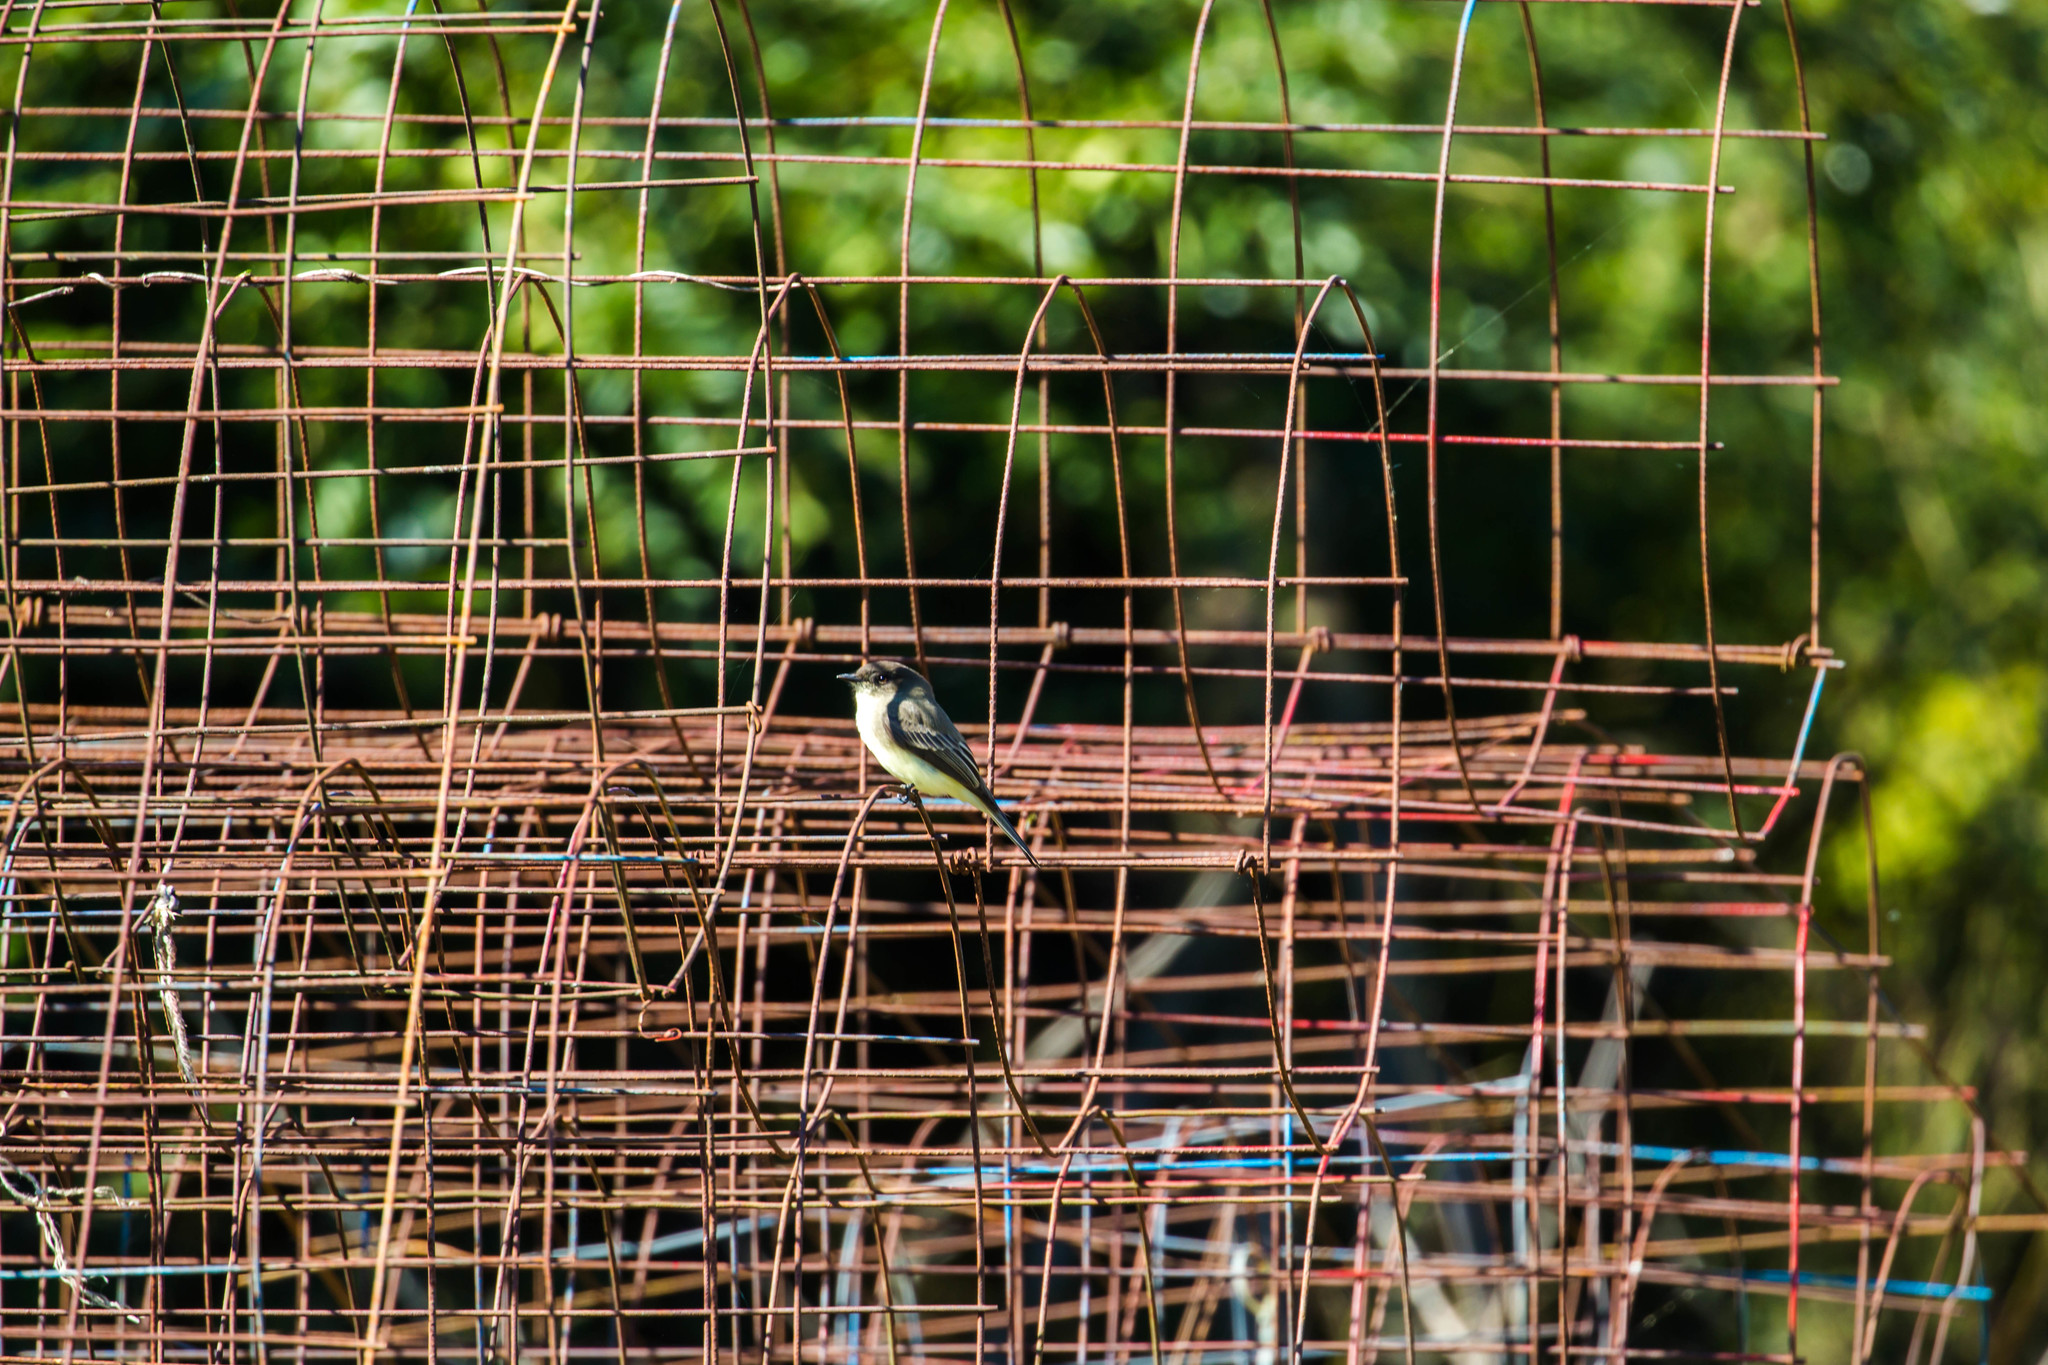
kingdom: Animalia
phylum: Chordata
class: Aves
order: Passeriformes
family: Tyrannidae
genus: Sayornis
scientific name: Sayornis phoebe
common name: Eastern phoebe
